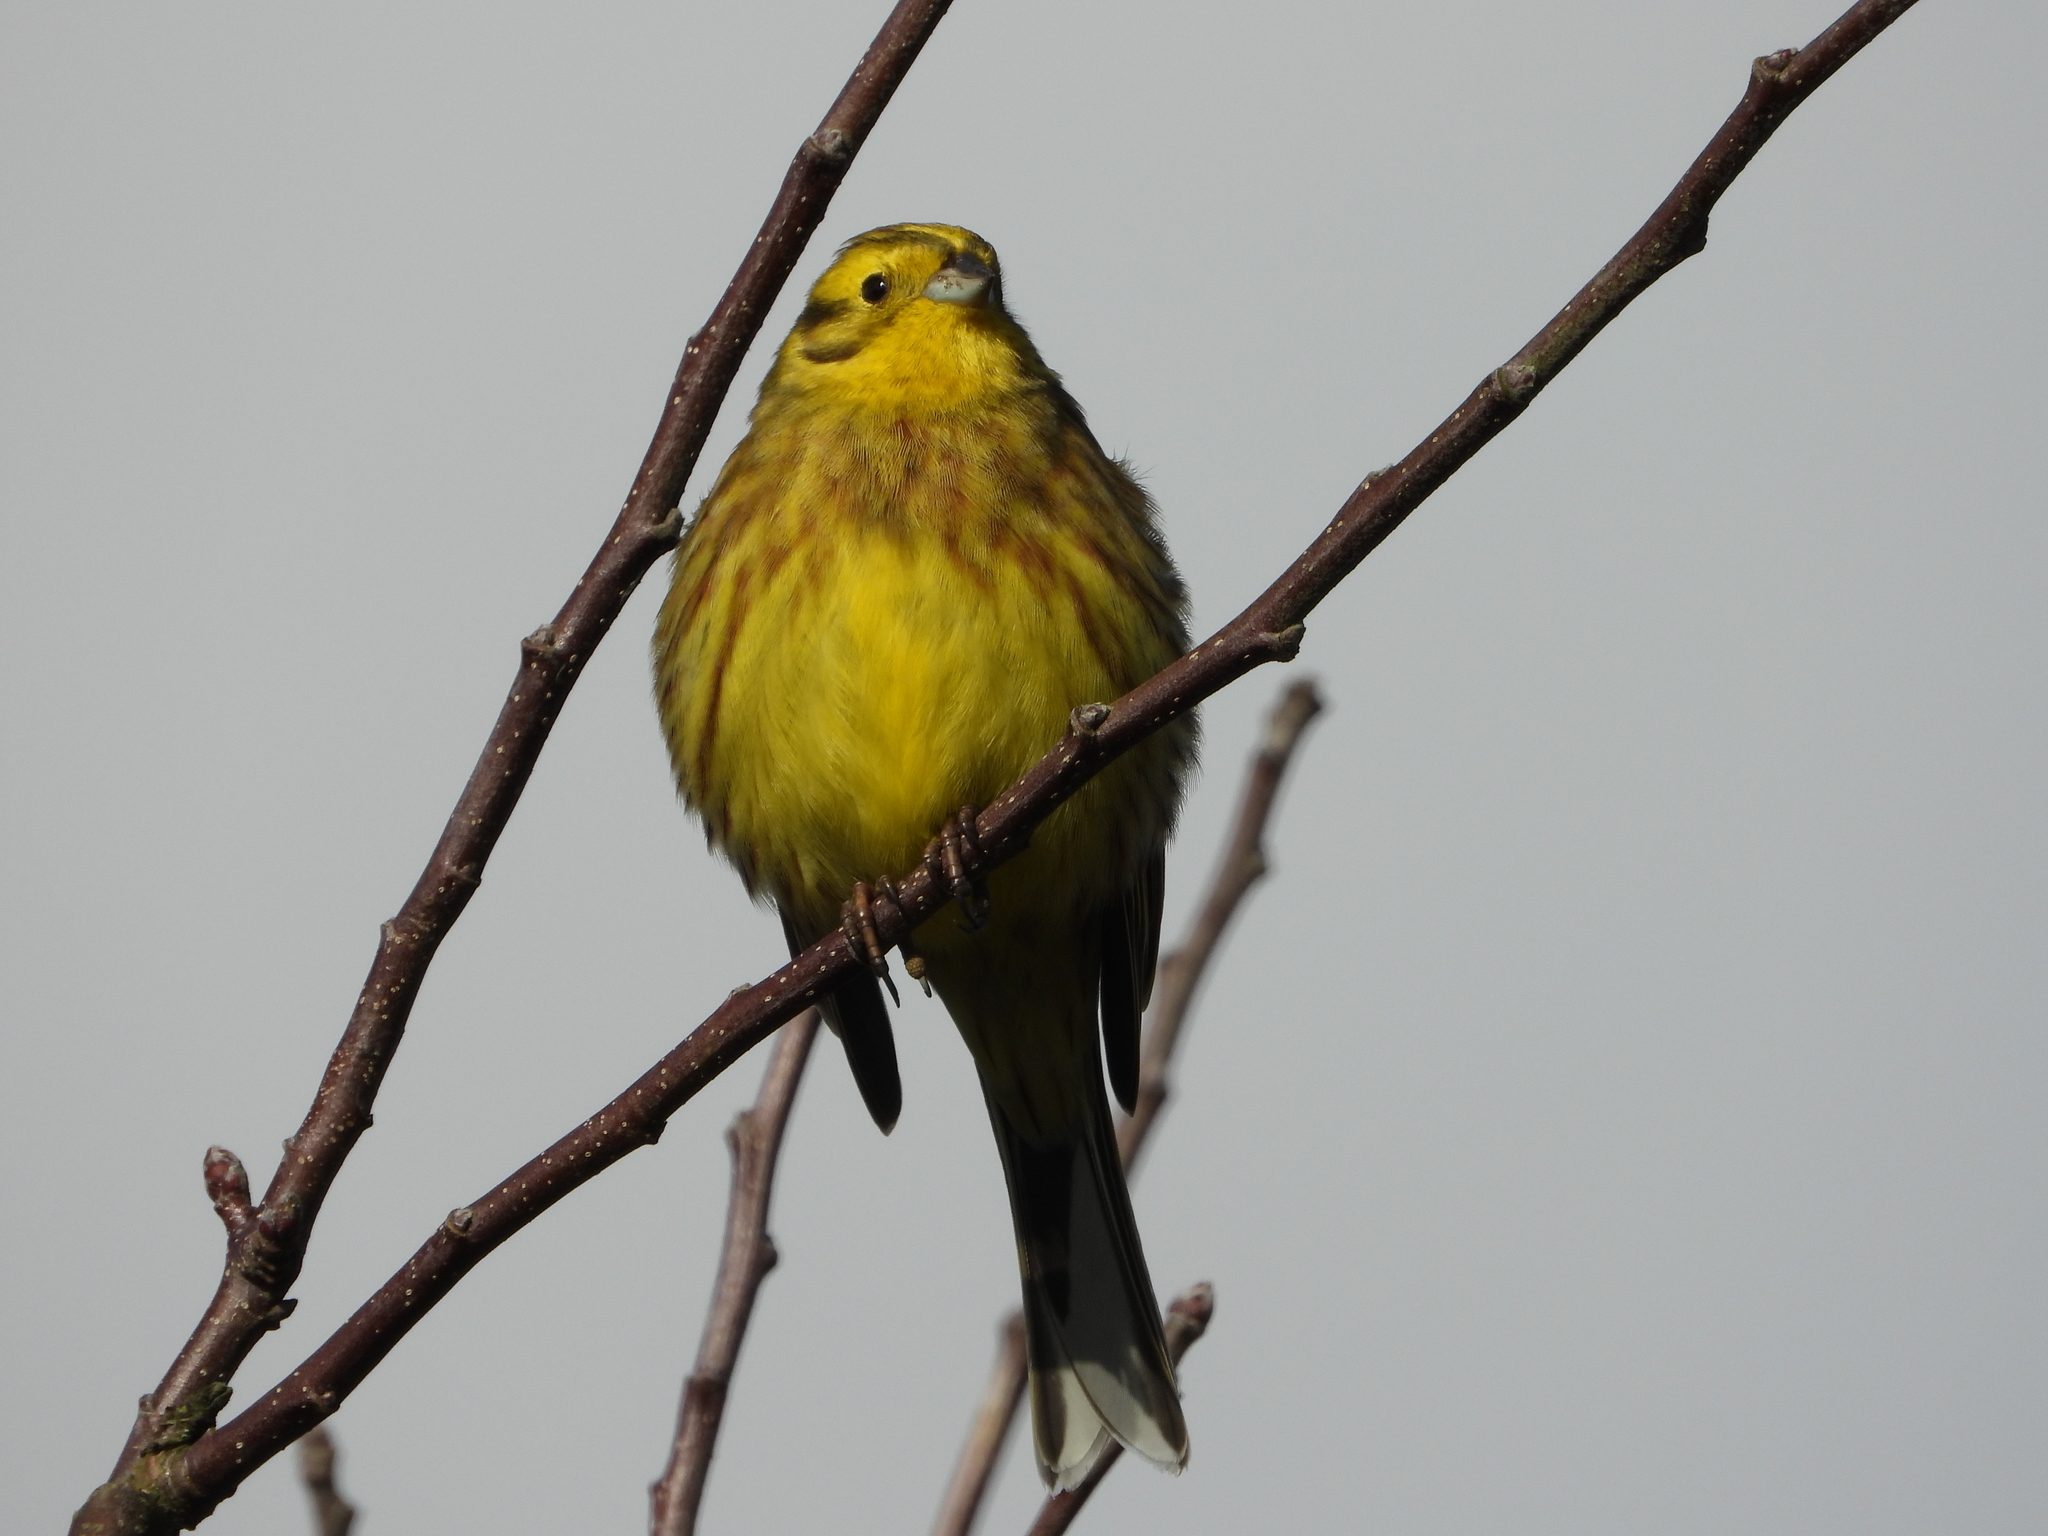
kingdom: Animalia
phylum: Chordata
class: Aves
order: Passeriformes
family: Emberizidae
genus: Emberiza
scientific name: Emberiza citrinella
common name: Yellowhammer
